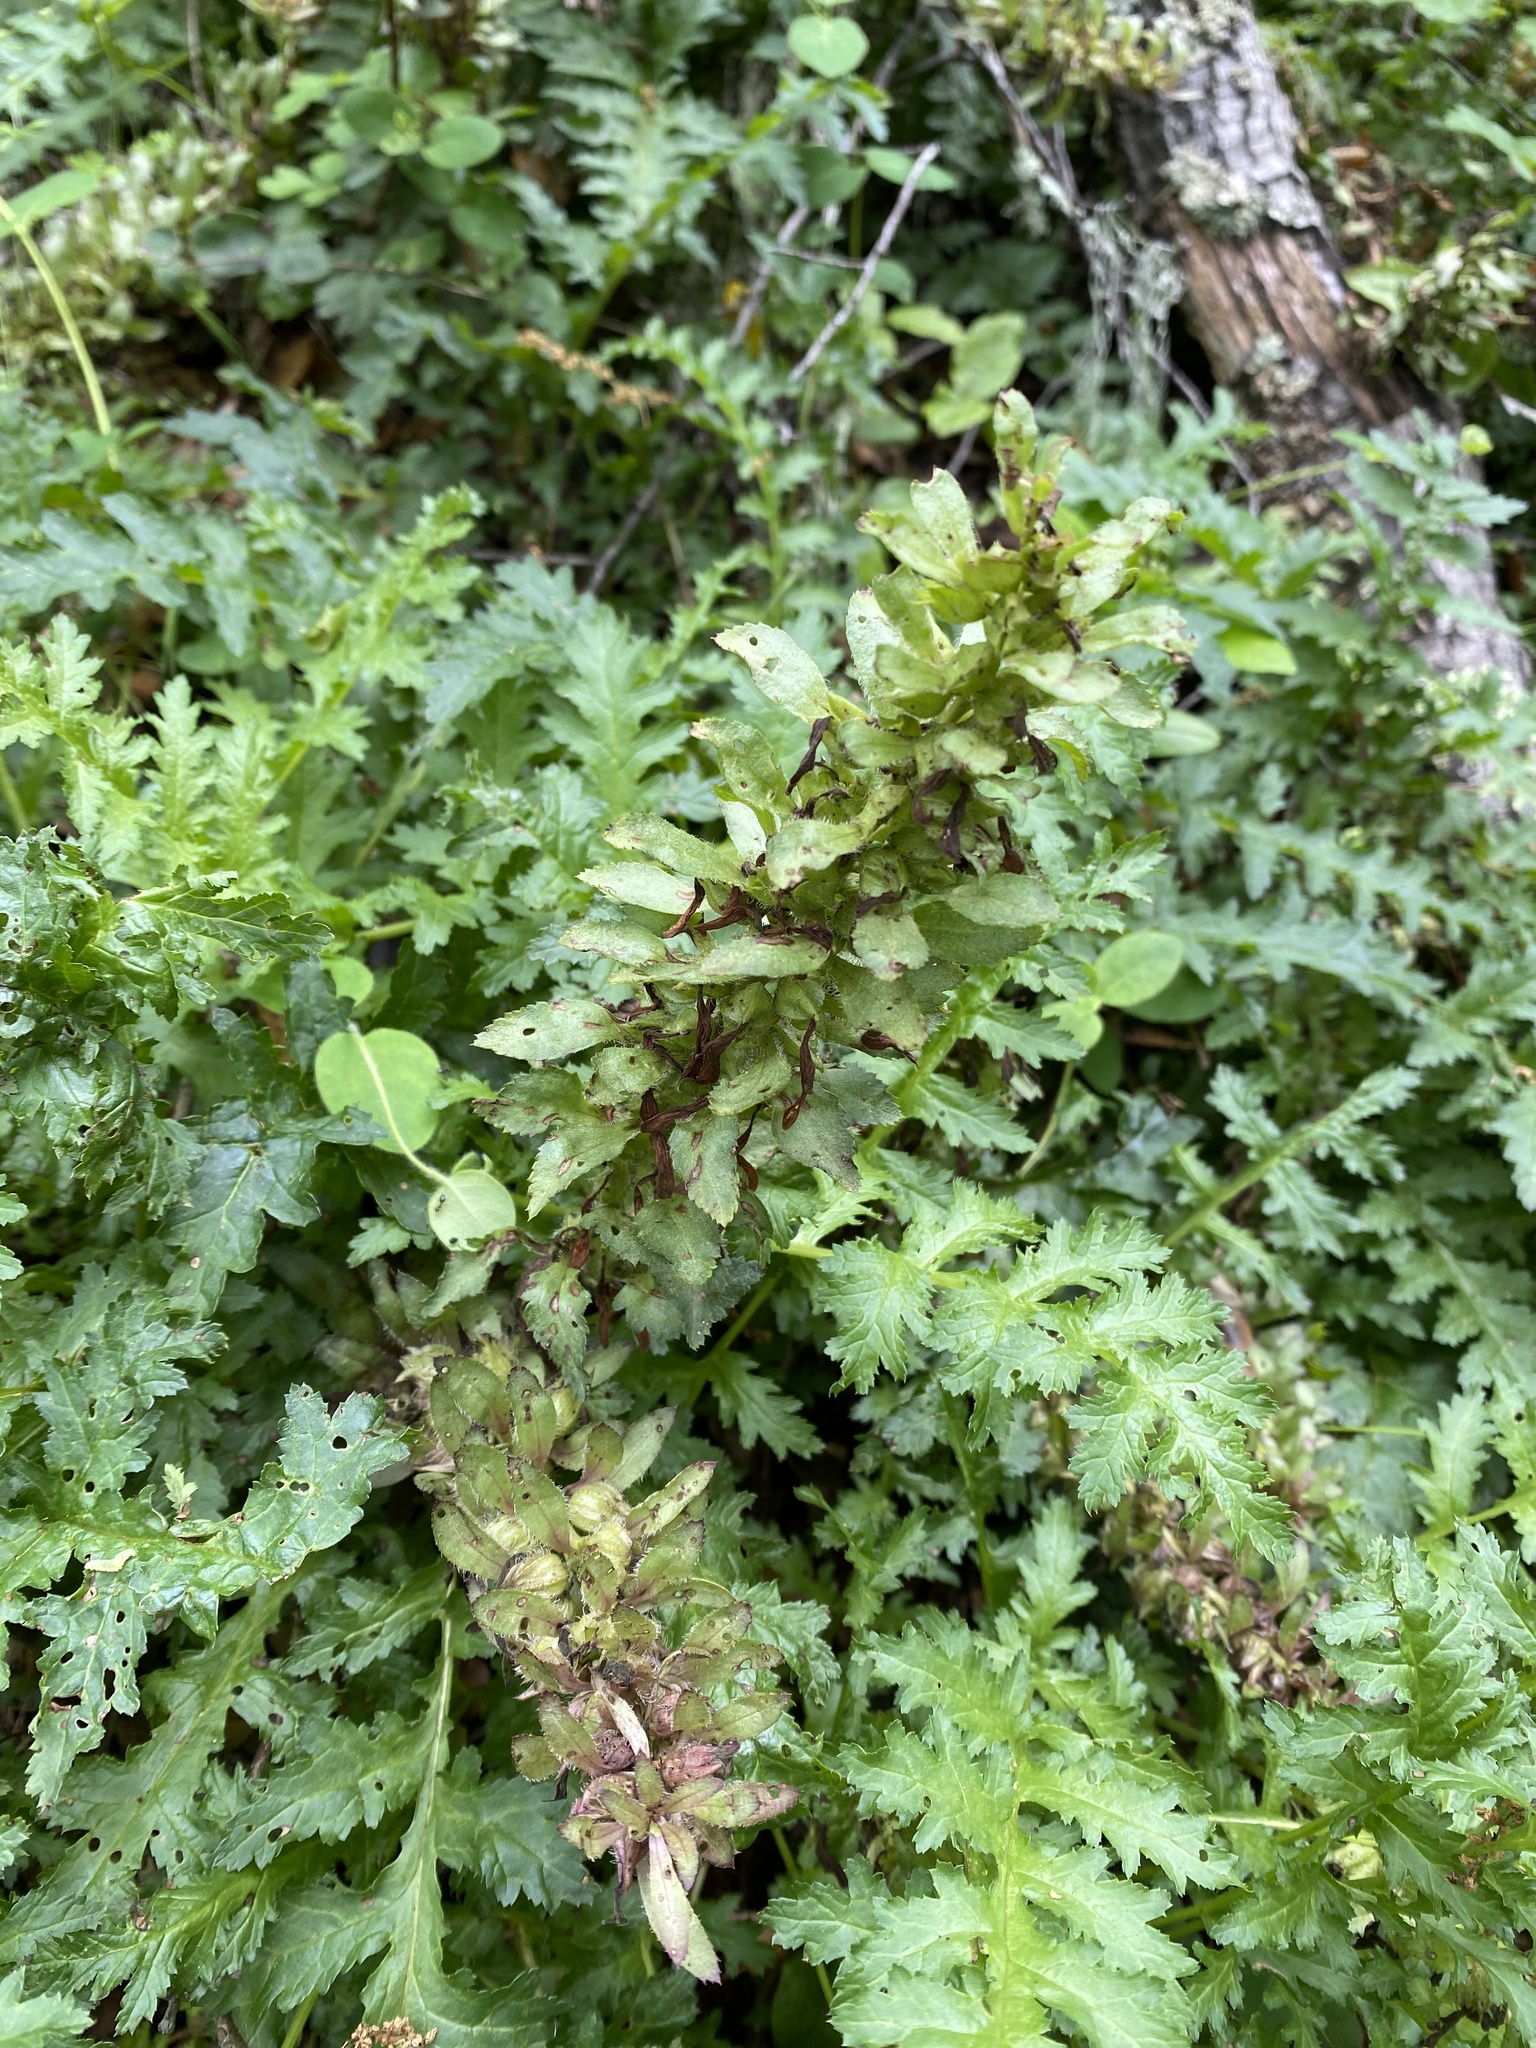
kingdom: Plantae
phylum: Tracheophyta
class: Magnoliopsida
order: Lamiales
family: Orobanchaceae
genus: Pedicularis
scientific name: Pedicularis densiflora
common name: Indian warrior
